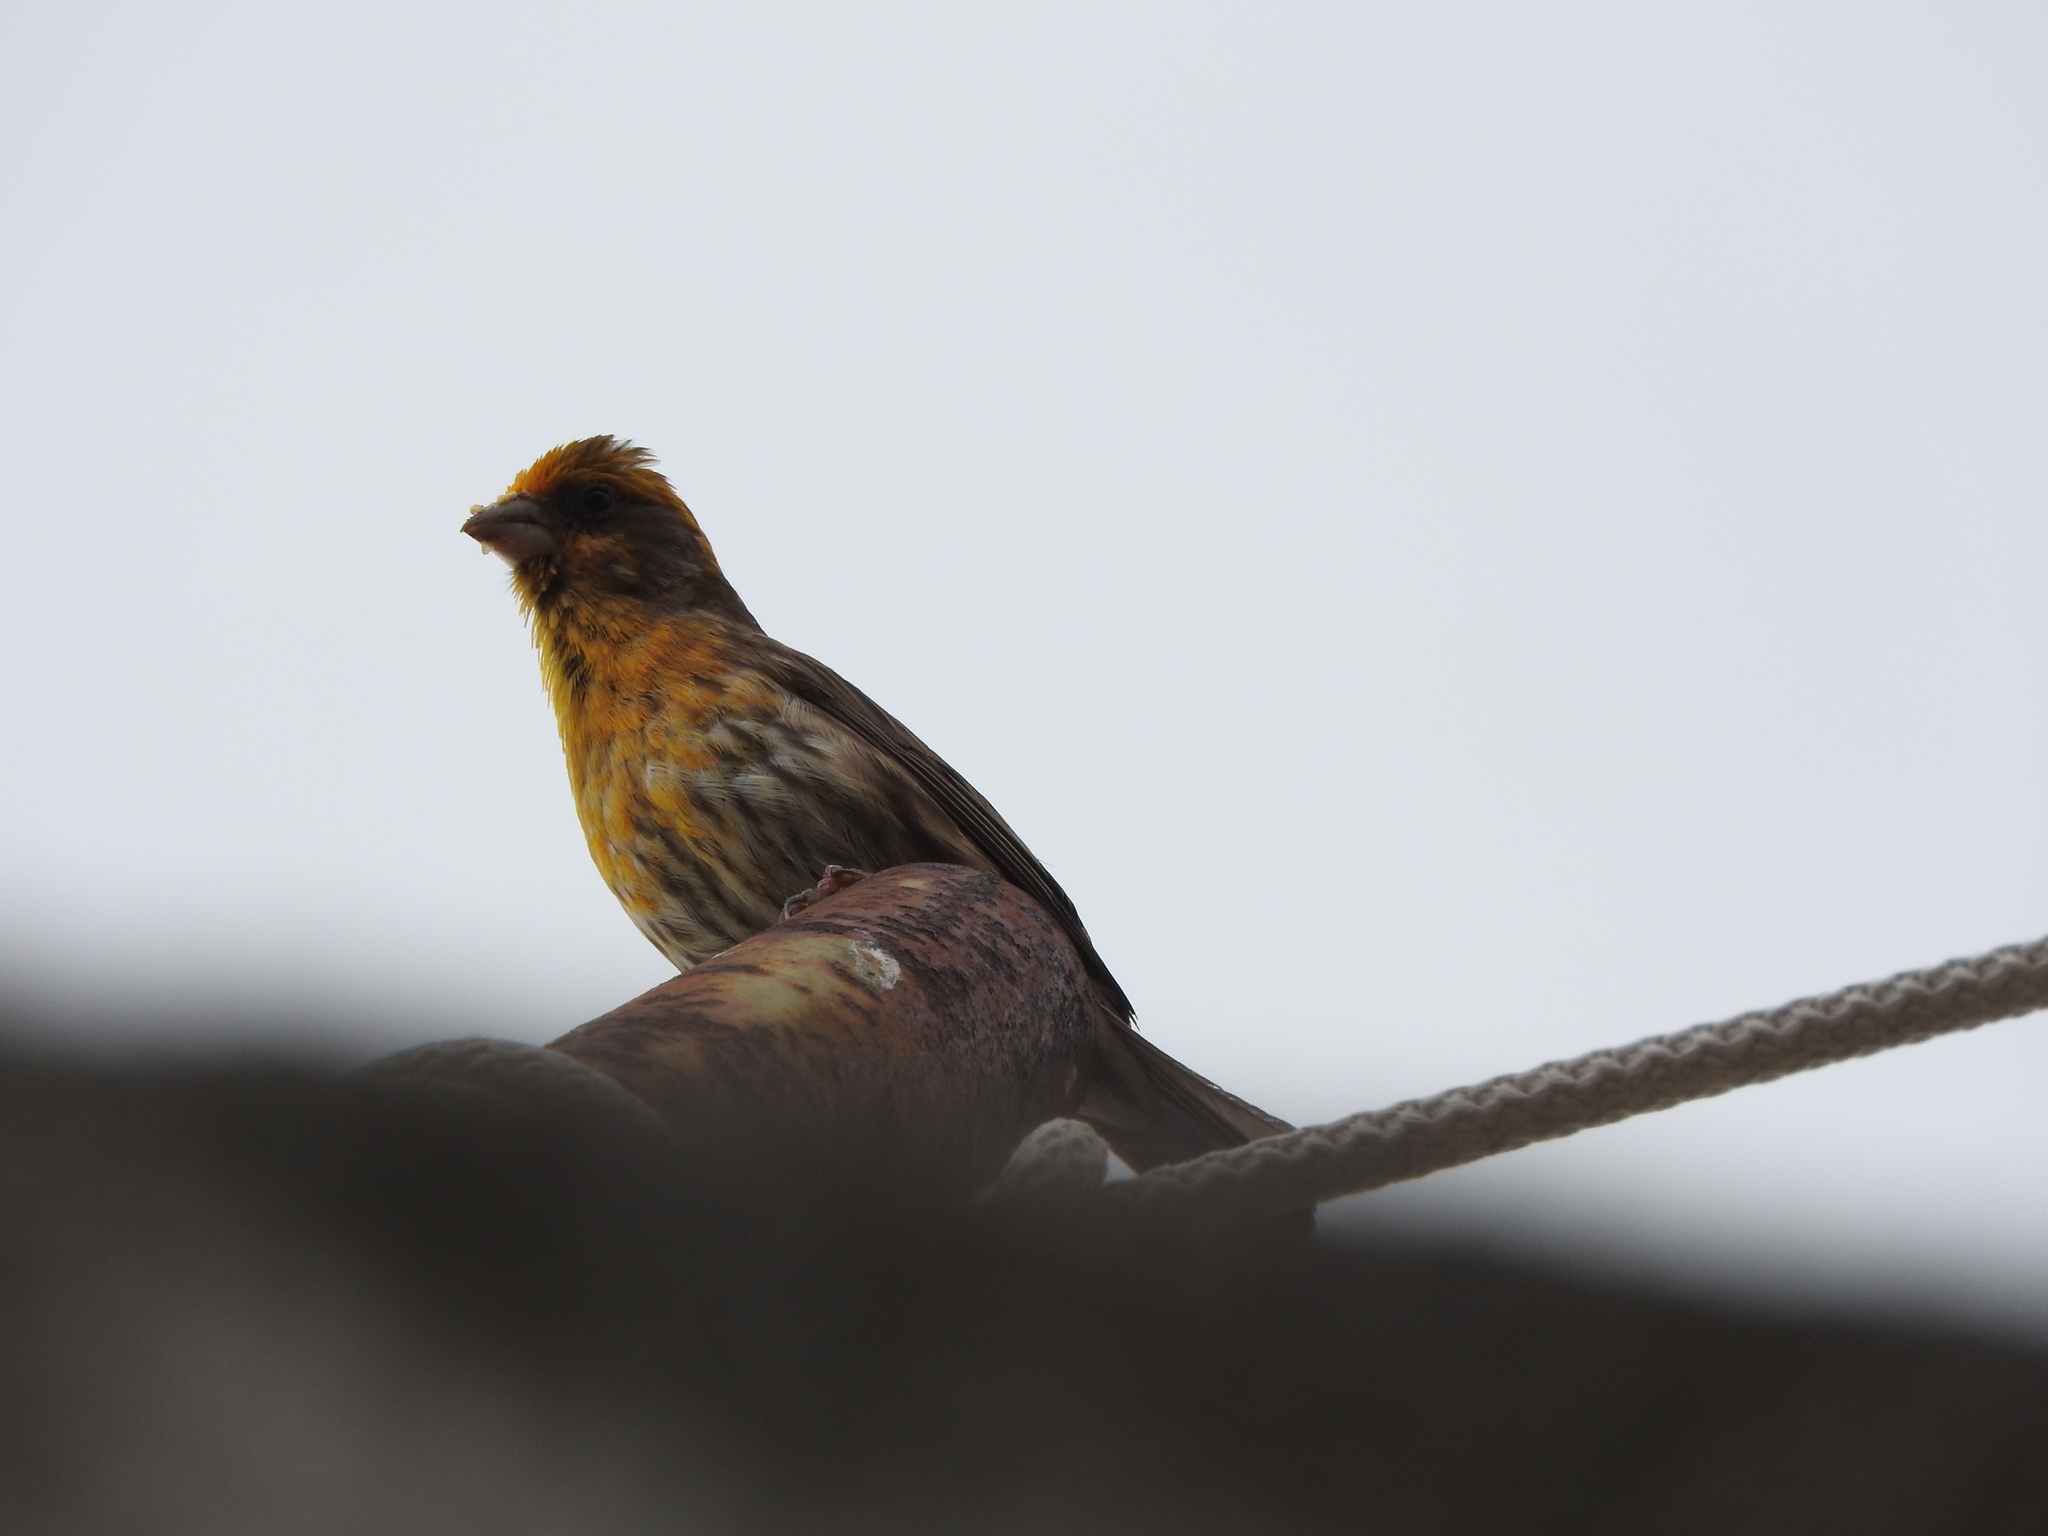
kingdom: Animalia
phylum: Chordata
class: Aves
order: Passeriformes
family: Fringillidae
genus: Haemorhous
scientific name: Haemorhous mexicanus
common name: House finch
